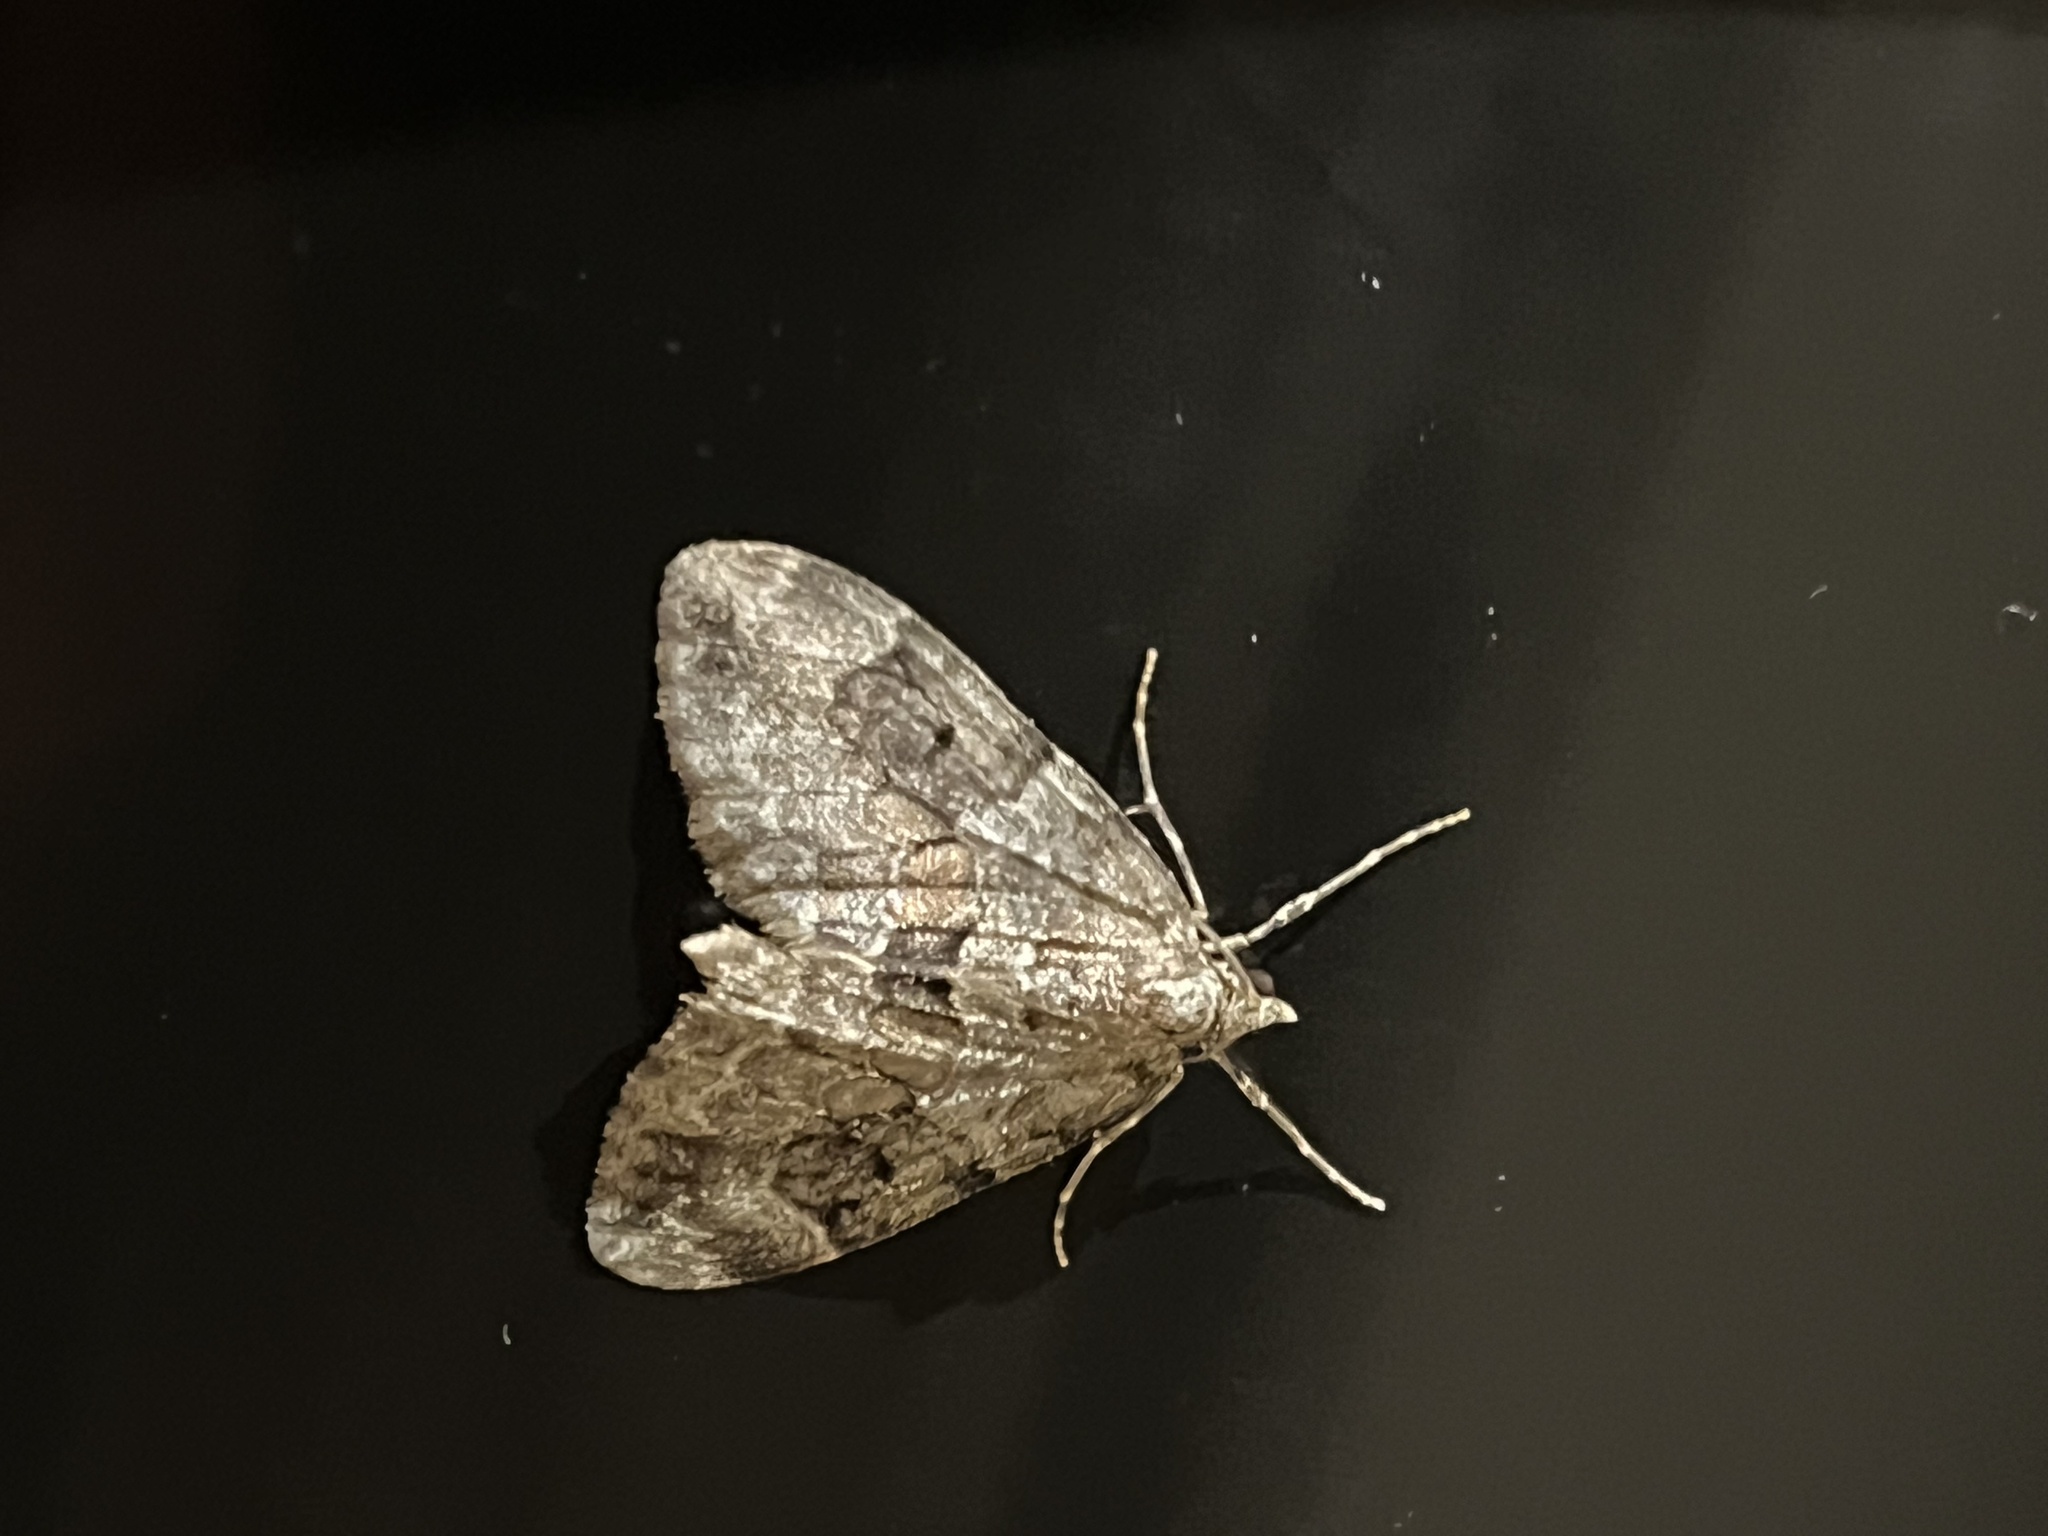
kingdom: Animalia
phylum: Arthropoda
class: Insecta
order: Lepidoptera
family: Geometridae
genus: Thera
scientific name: Thera britannica
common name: Spruce carpet
